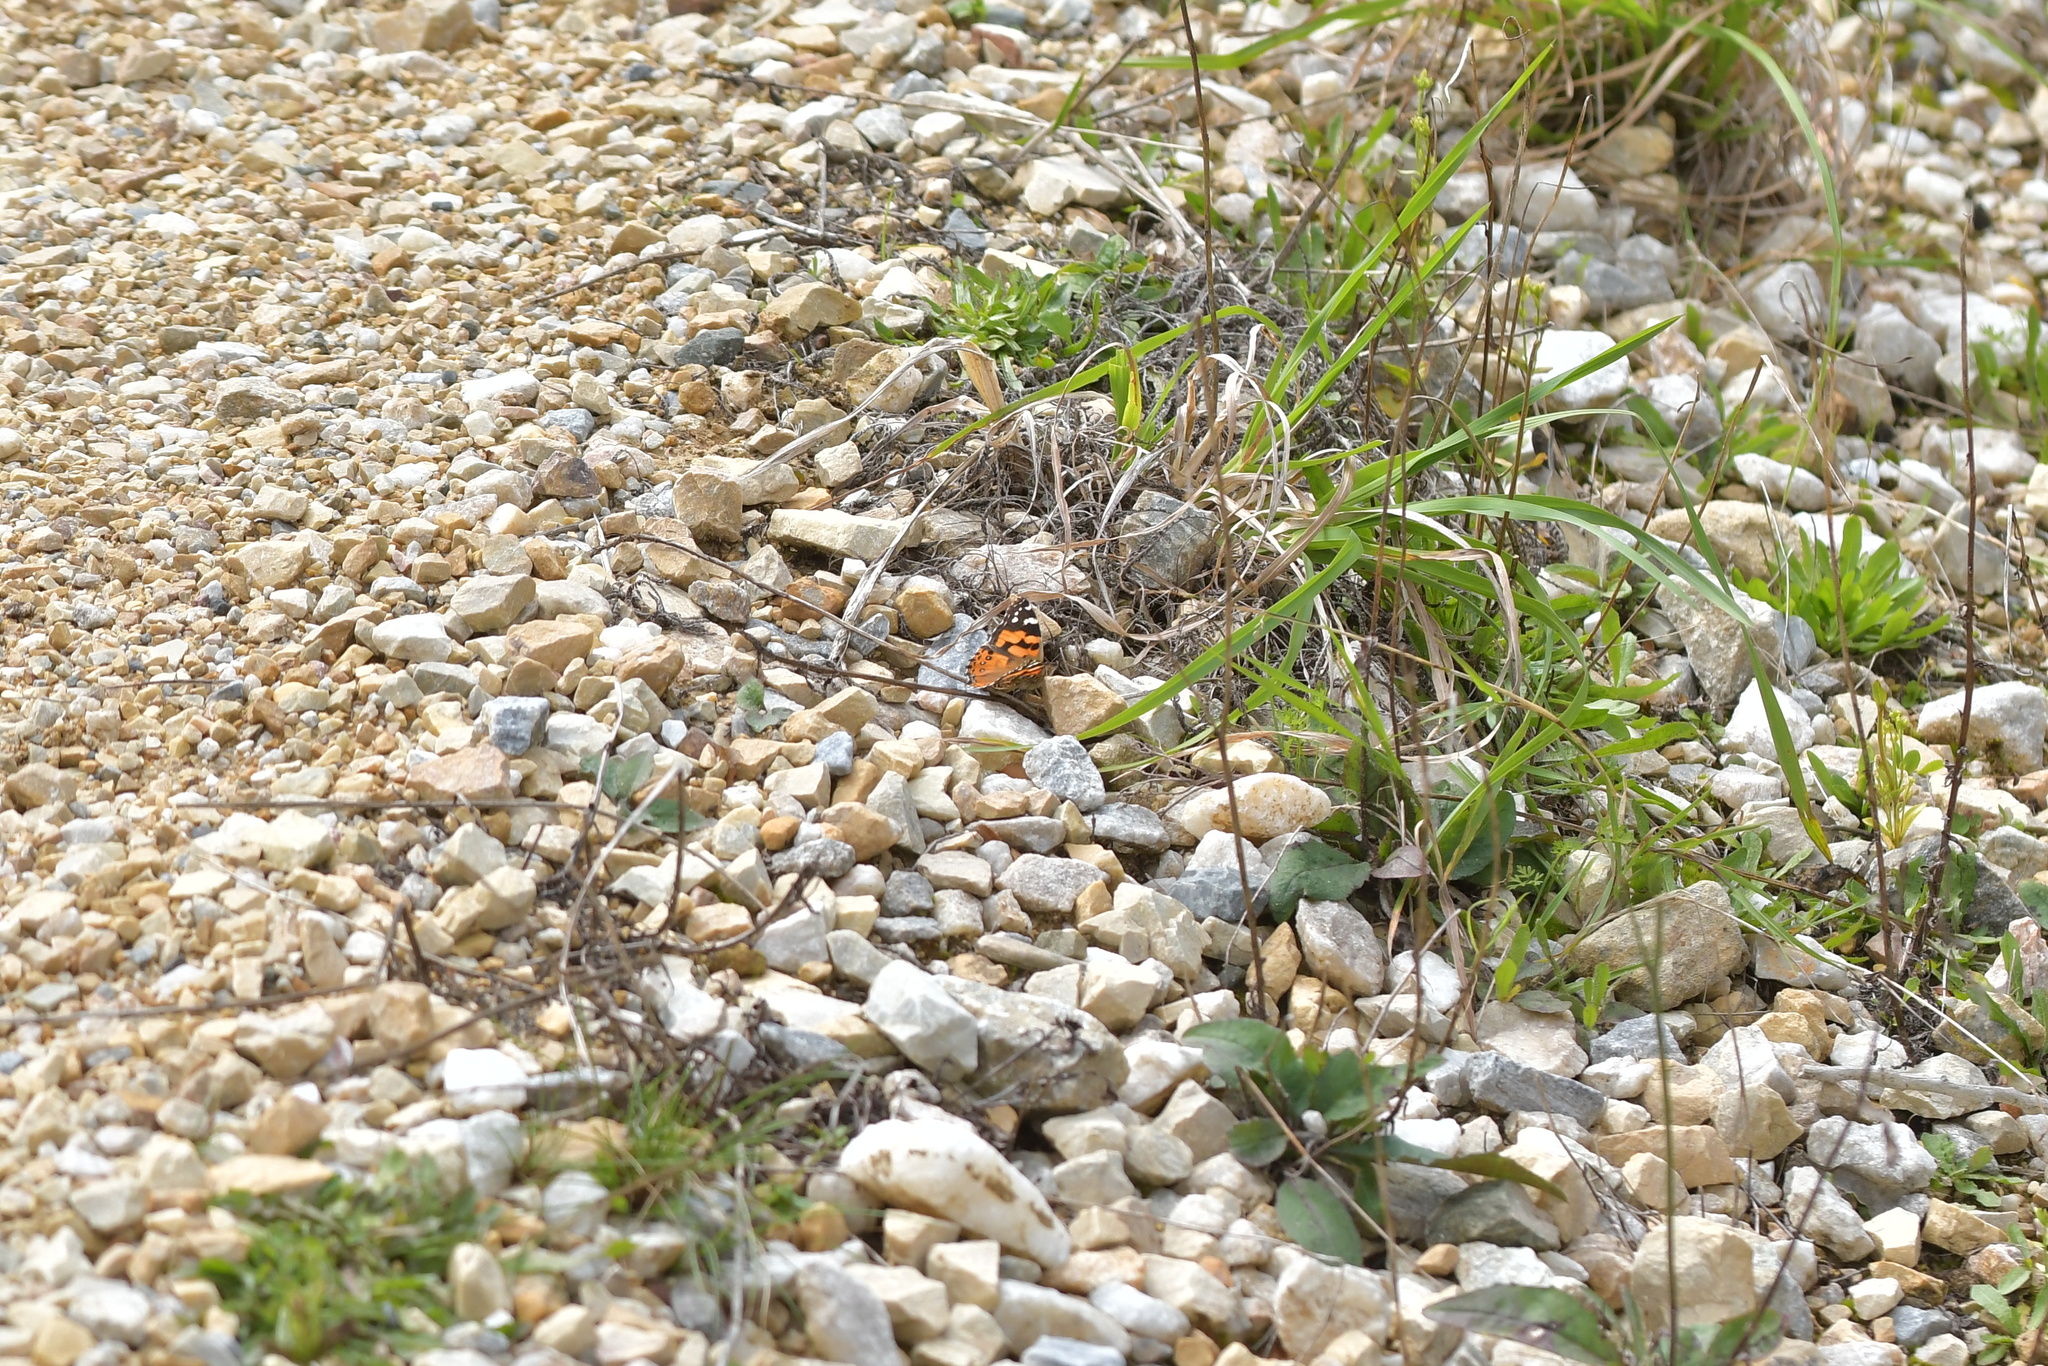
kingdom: Animalia
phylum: Arthropoda
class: Insecta
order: Lepidoptera
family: Nymphalidae
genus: Vanessa
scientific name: Vanessa kershawi
